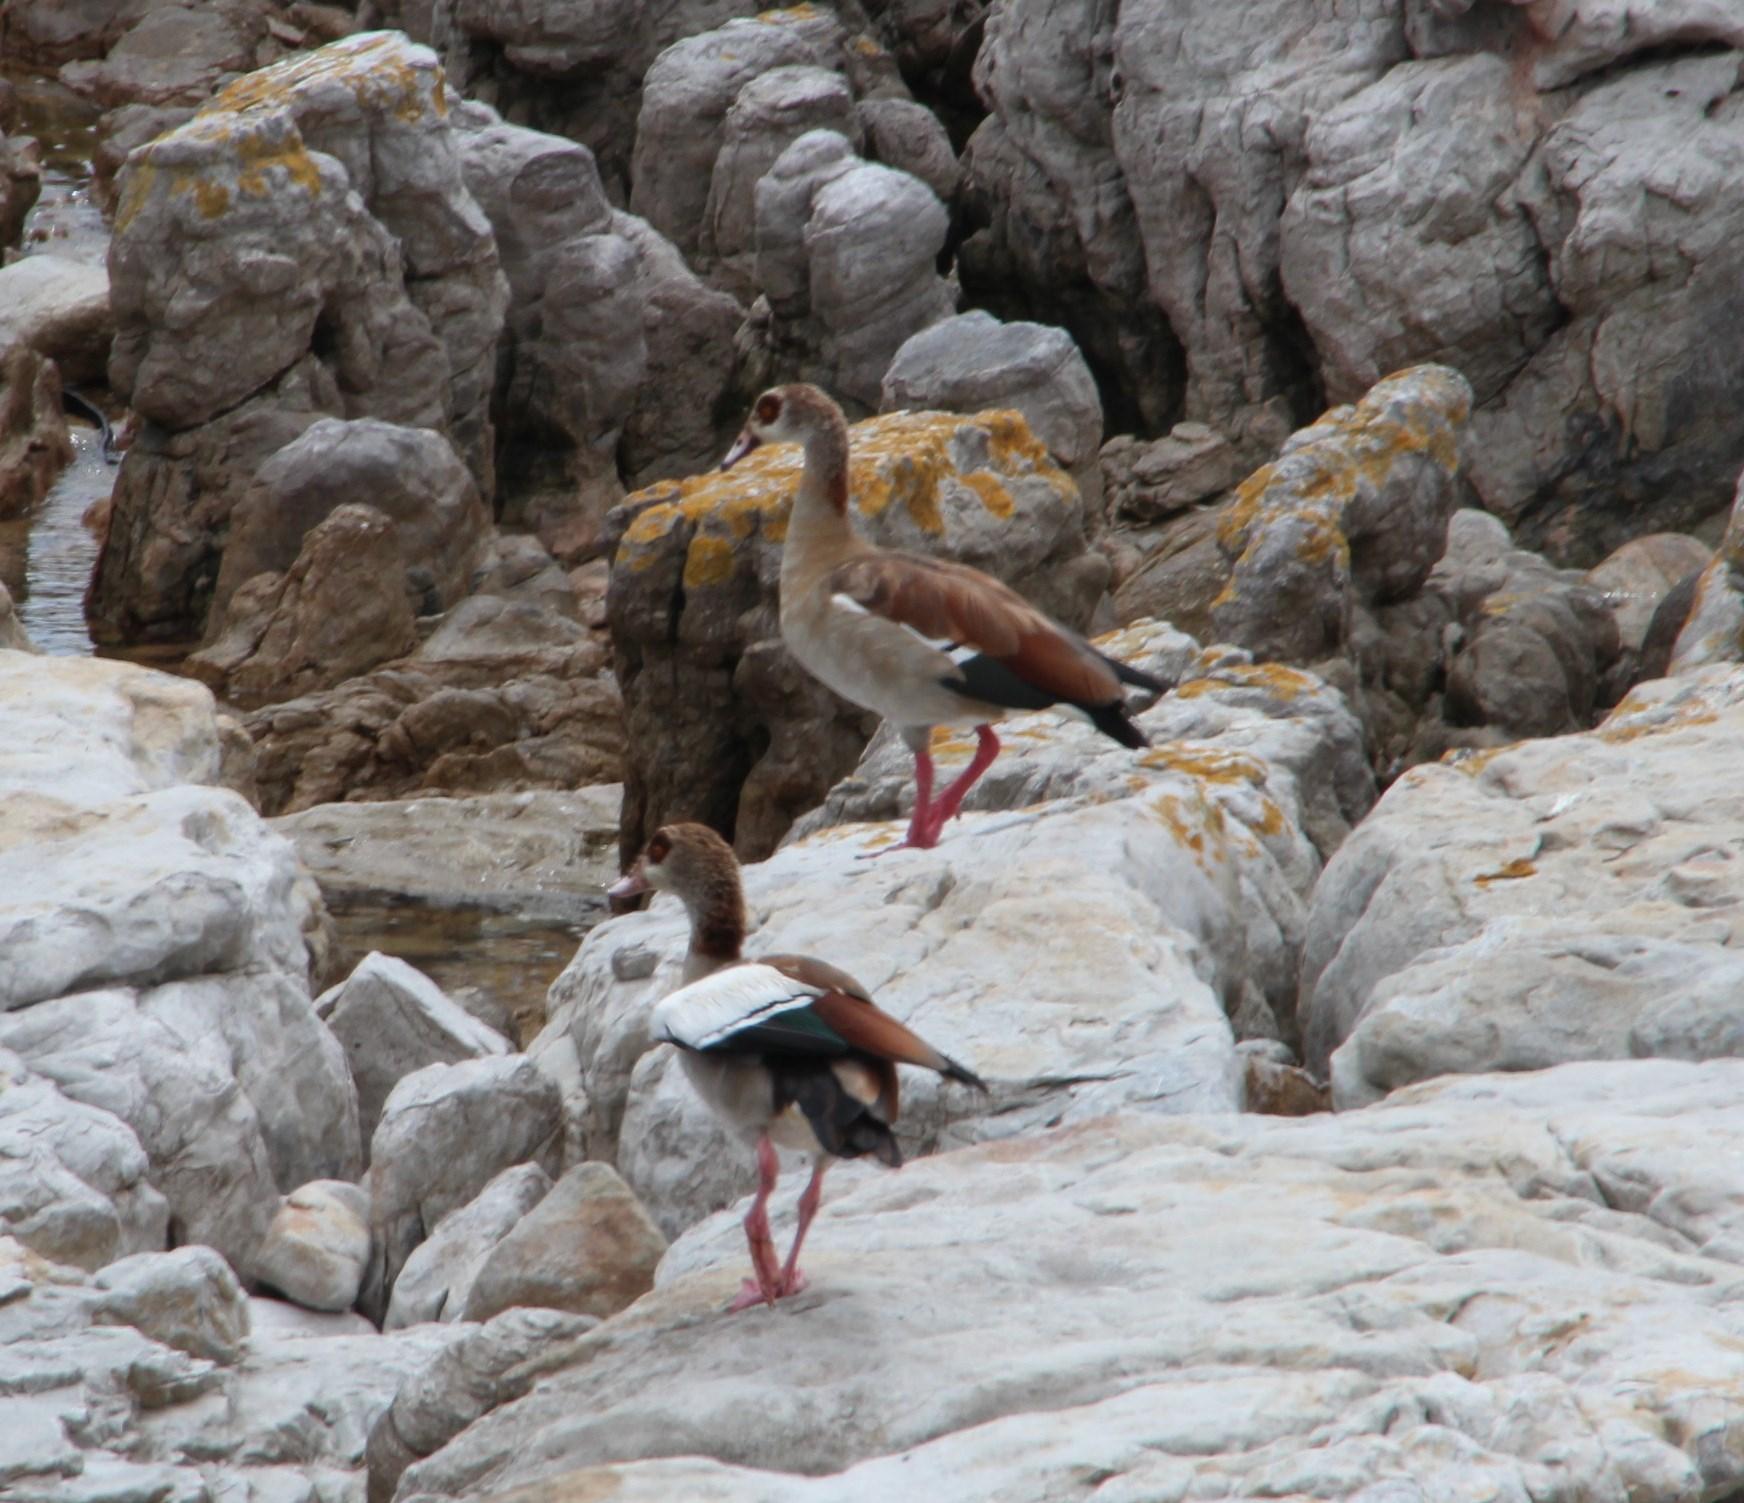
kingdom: Animalia
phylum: Chordata
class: Aves
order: Anseriformes
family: Anatidae
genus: Alopochen
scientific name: Alopochen aegyptiaca
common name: Egyptian goose
